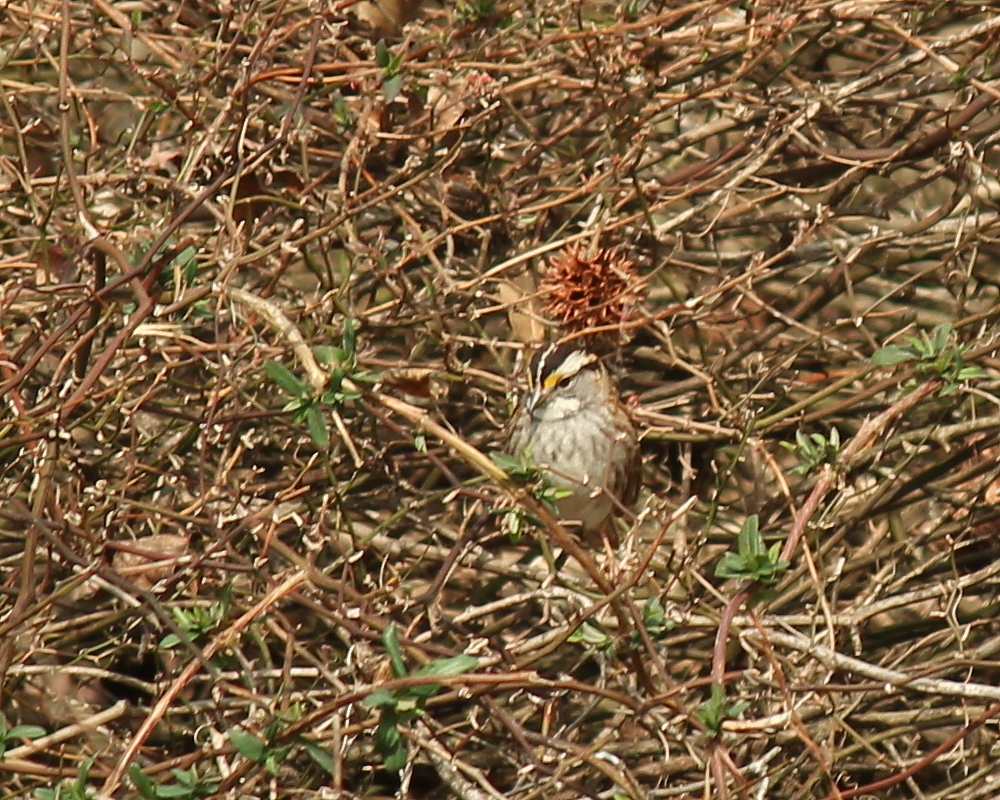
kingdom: Animalia
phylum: Chordata
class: Aves
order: Passeriformes
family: Passerellidae
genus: Zonotrichia
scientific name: Zonotrichia albicollis
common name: White-throated sparrow
